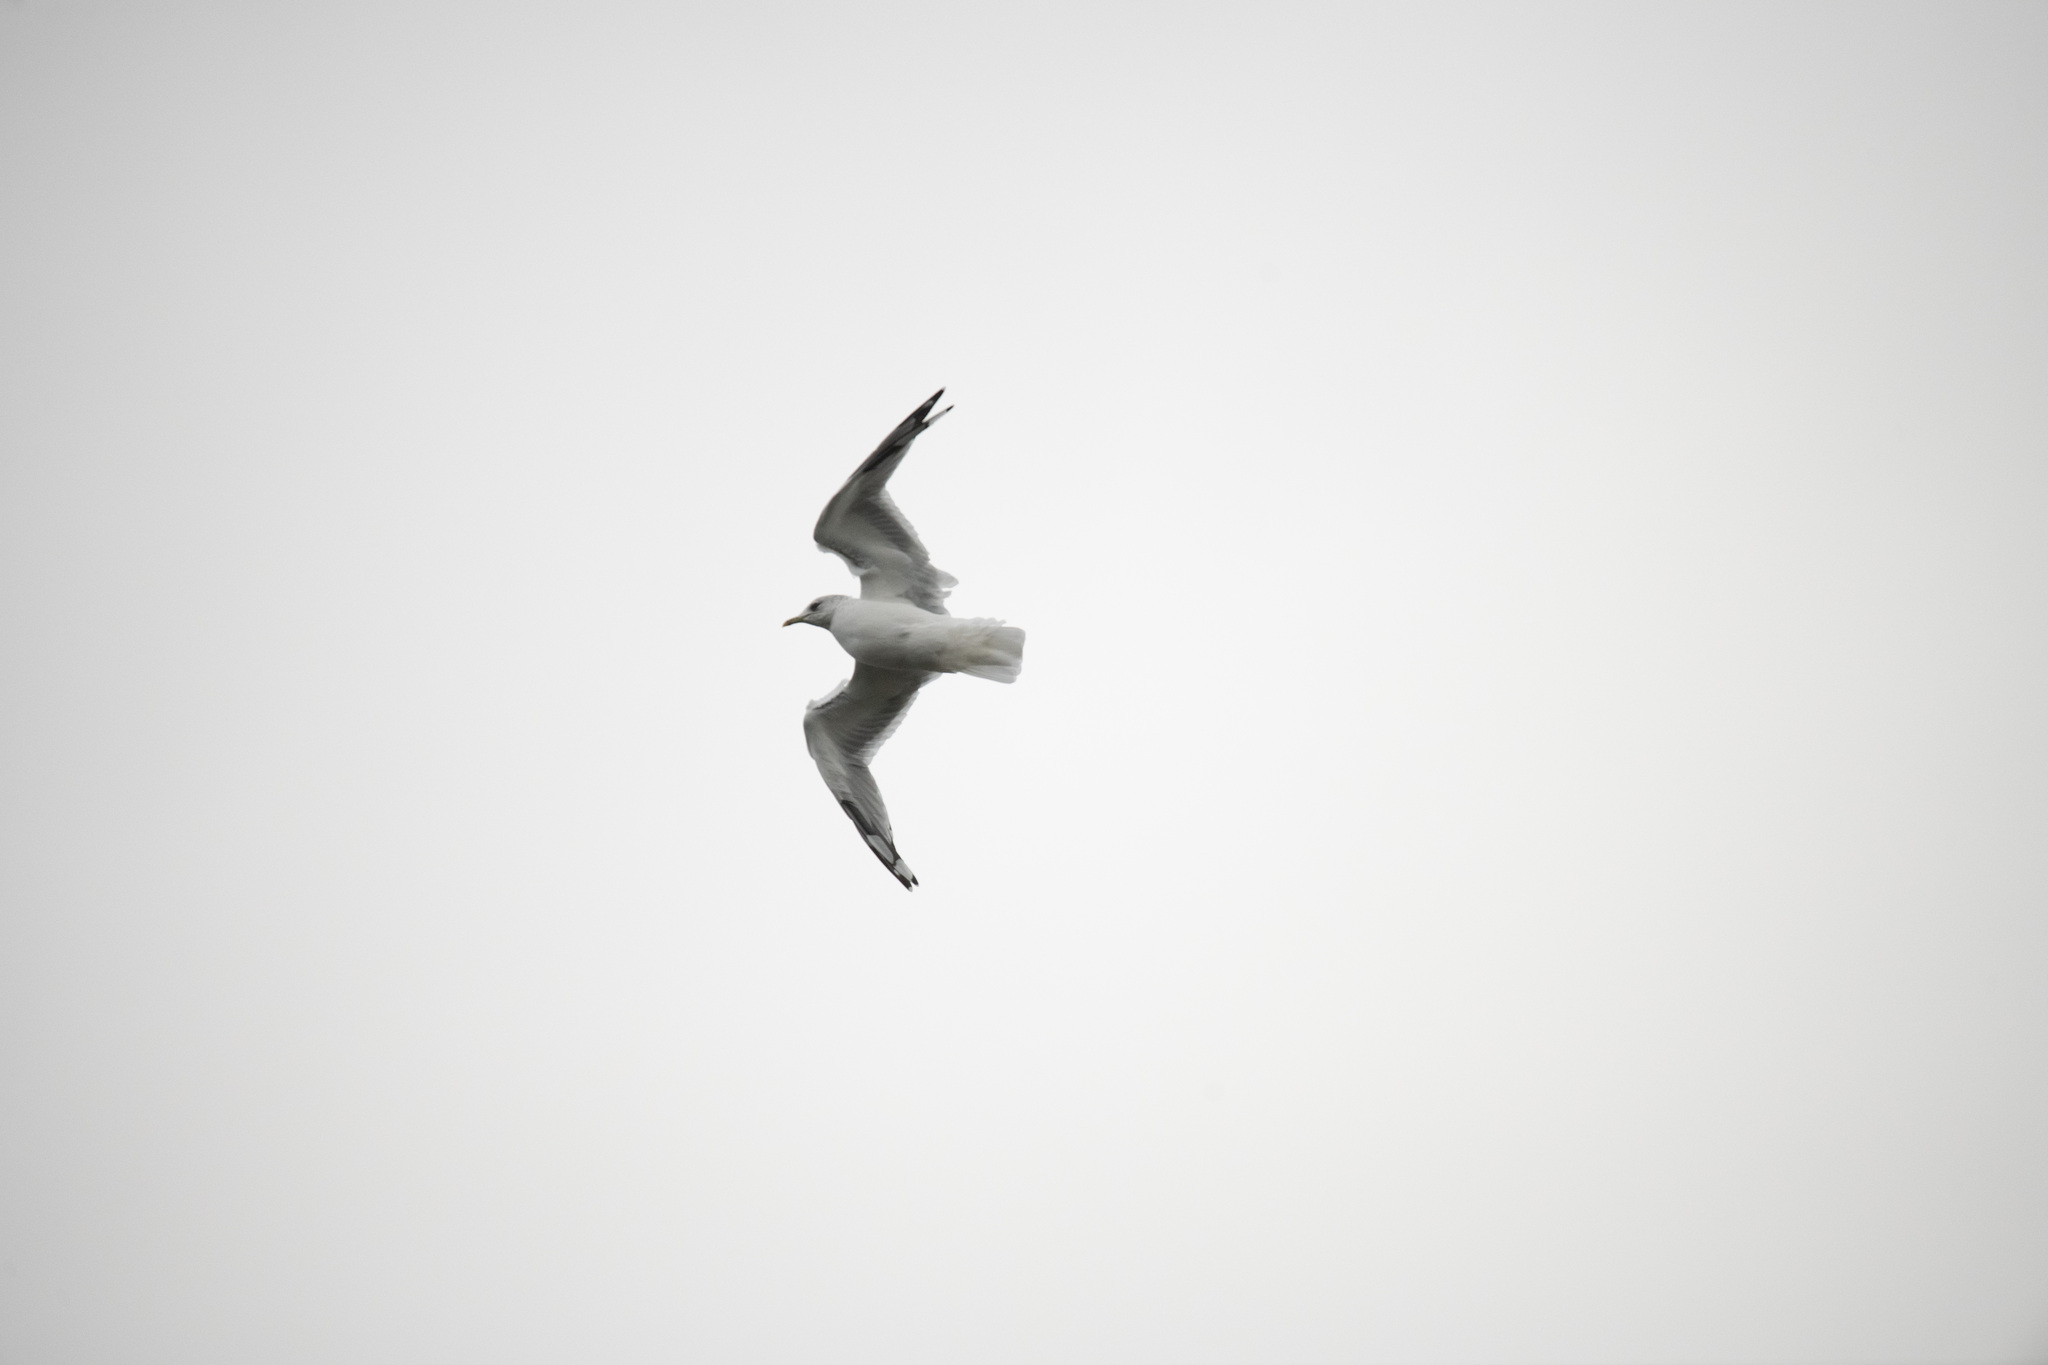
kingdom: Animalia
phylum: Chordata
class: Aves
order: Charadriiformes
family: Laridae
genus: Larus
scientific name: Larus canus
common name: Mew gull
